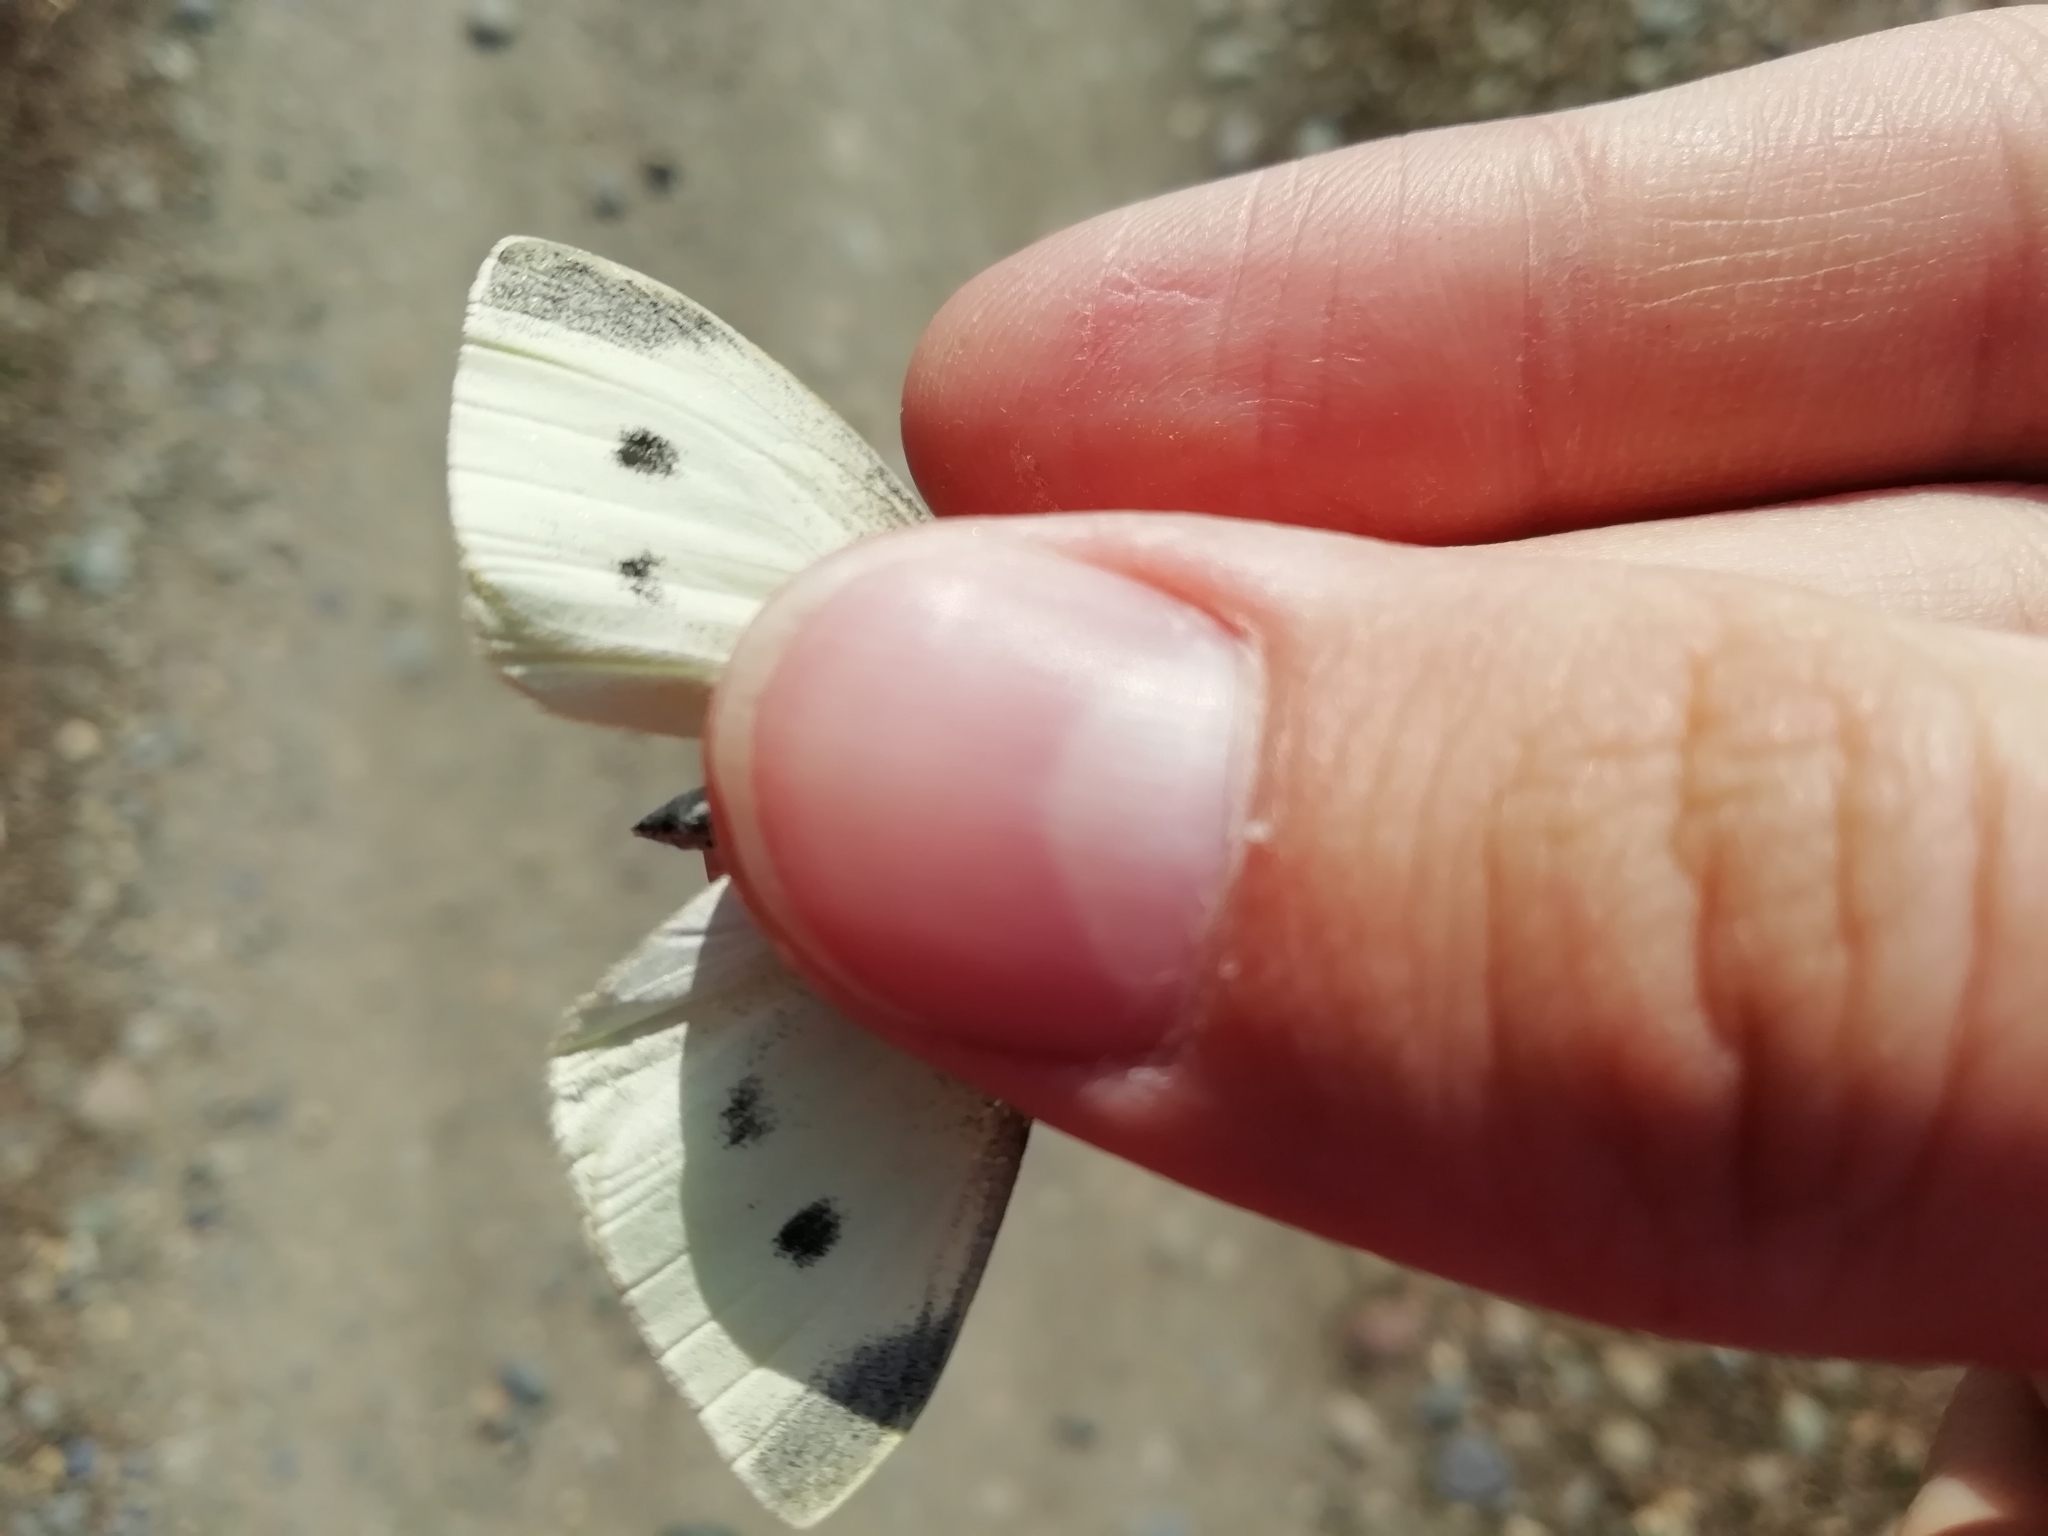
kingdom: Animalia
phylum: Arthropoda
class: Insecta
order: Lepidoptera
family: Pieridae
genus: Pieris
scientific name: Pieris rapae
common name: Small white
